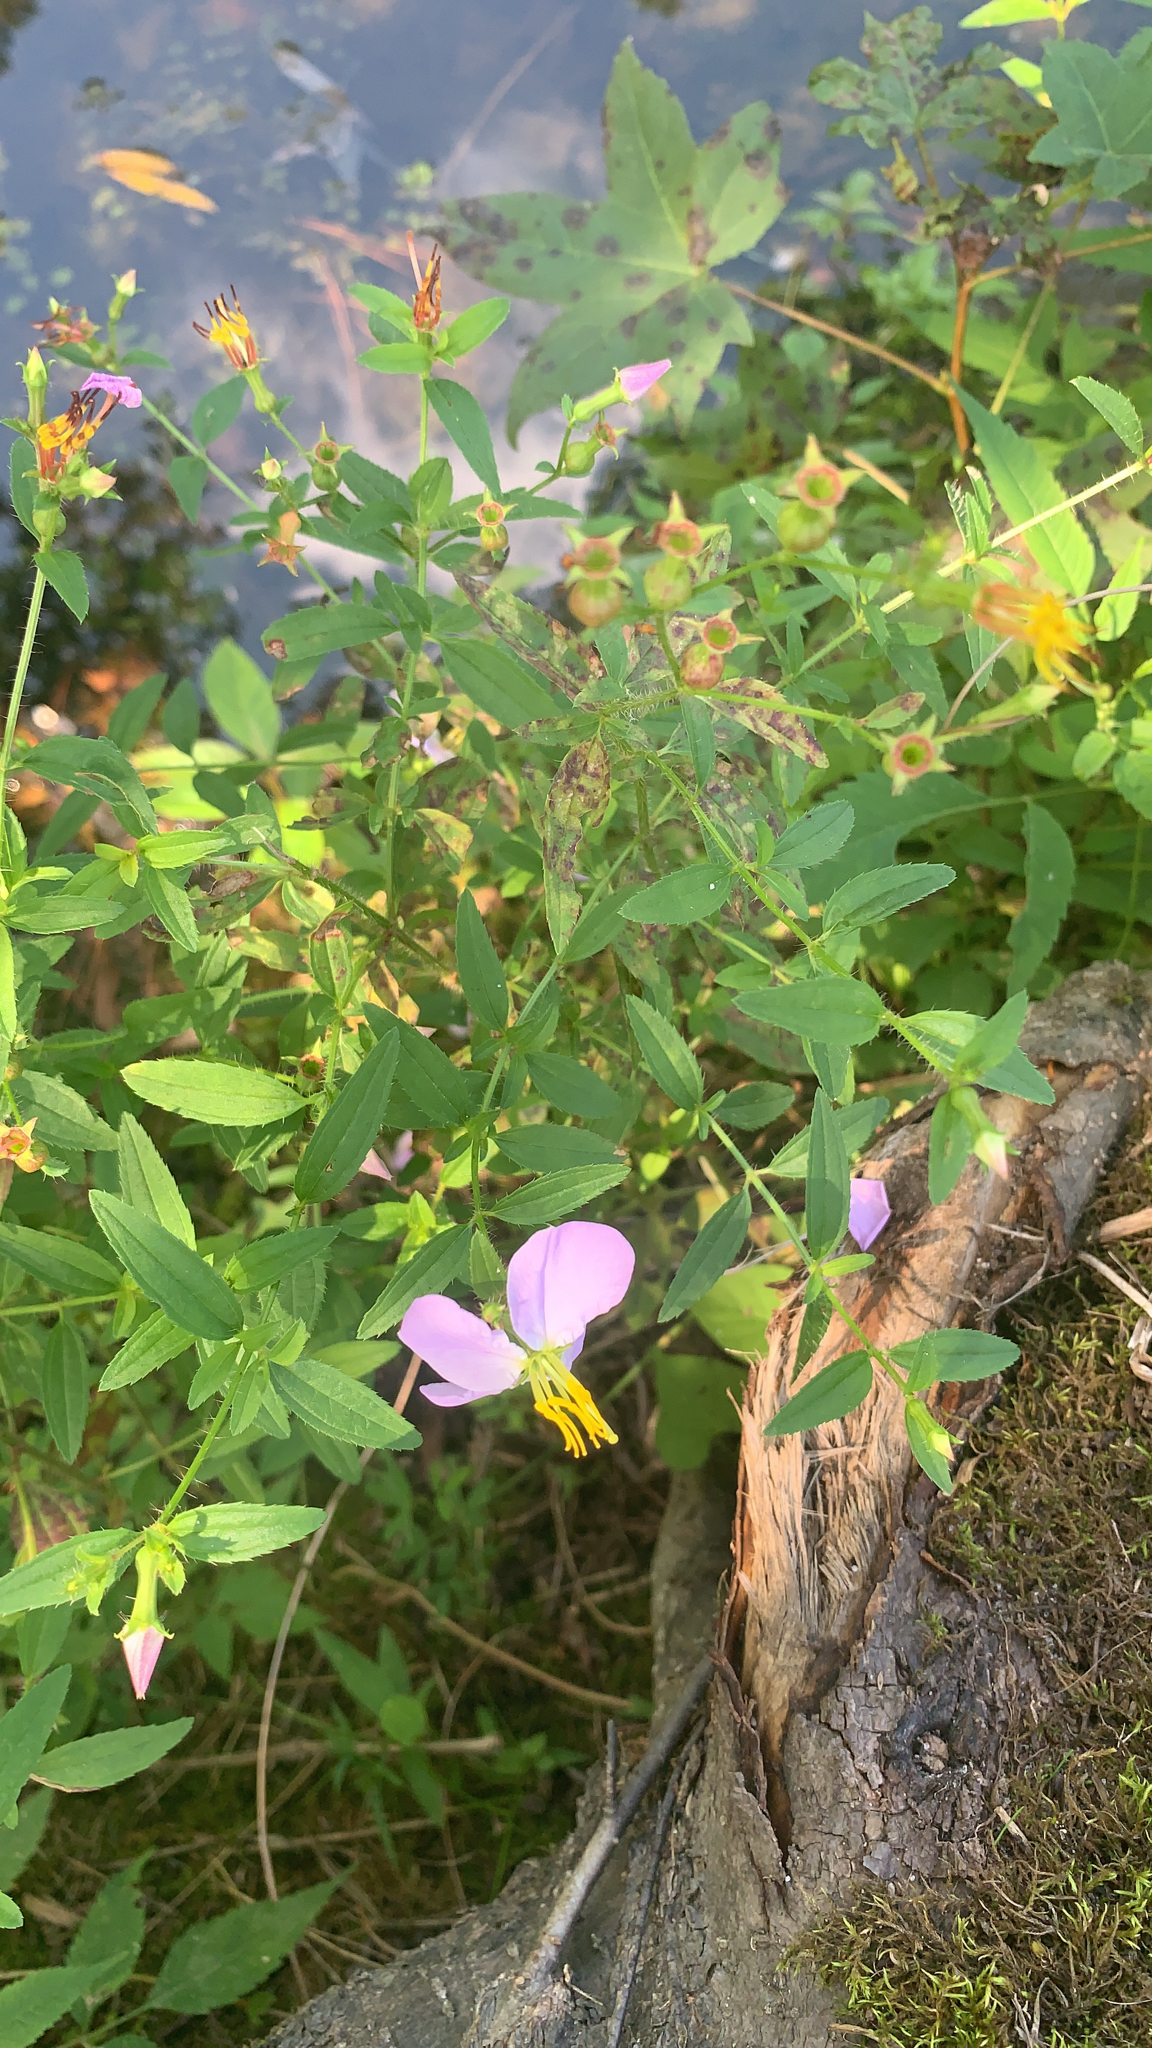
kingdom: Plantae
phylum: Tracheophyta
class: Magnoliopsida
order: Myrtales
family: Melastomataceae
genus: Rhexia
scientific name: Rhexia mariana
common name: Dull meadow-pitcher
